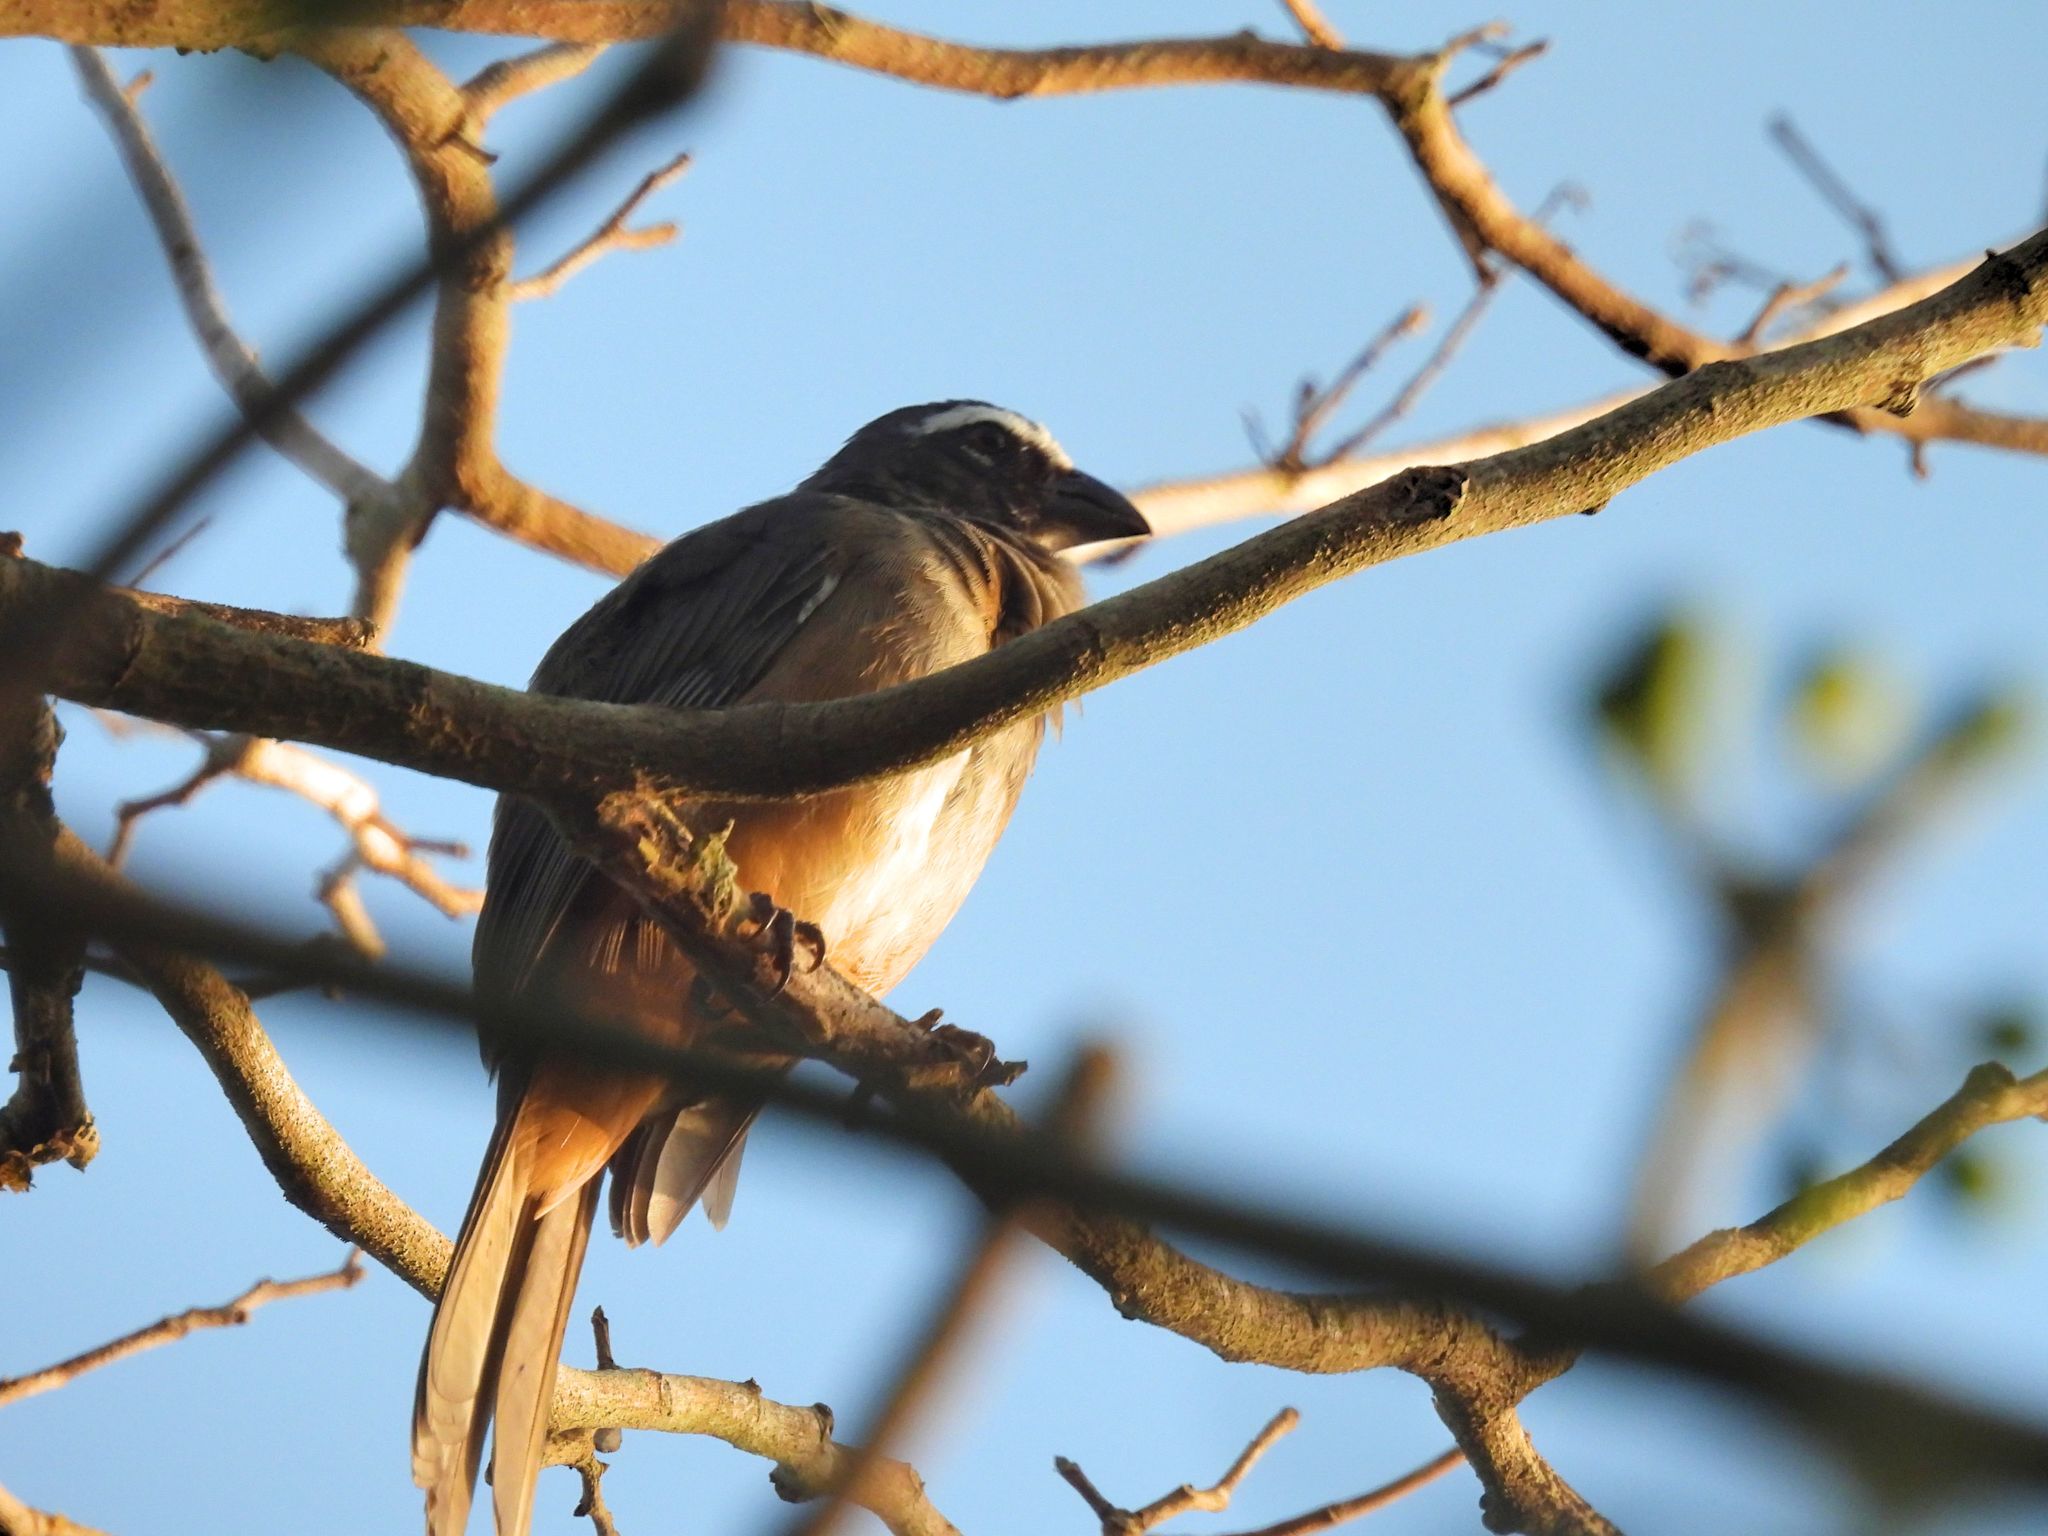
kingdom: Animalia
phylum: Chordata
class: Aves
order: Passeriformes
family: Thraupidae
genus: Saltator
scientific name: Saltator grandis
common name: Cinnamon-bellied saltator
